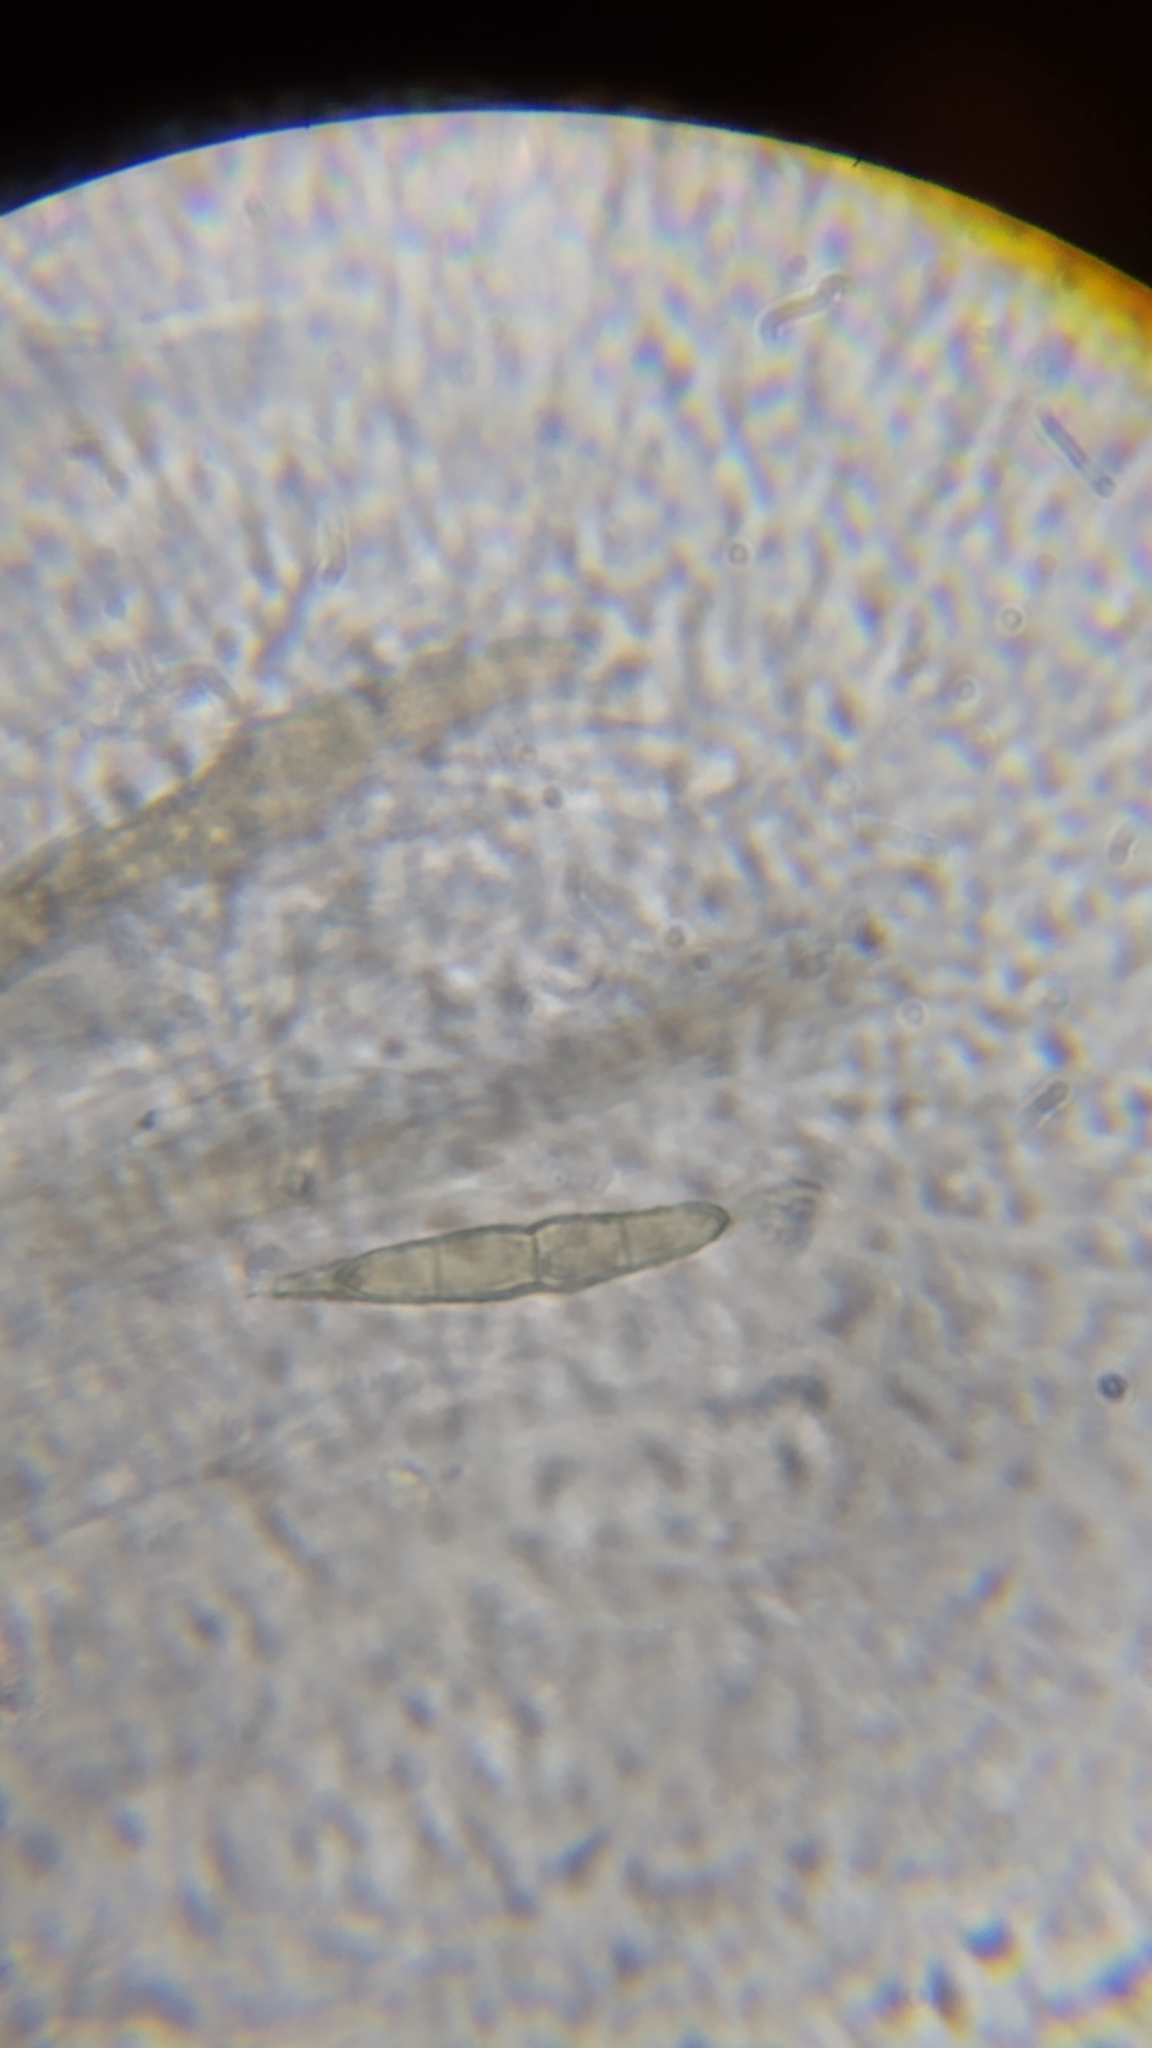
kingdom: Fungi
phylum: Ascomycota
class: Dothideomycetes
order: Pleosporales
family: Melanommataceae
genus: Byssosphaeria
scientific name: Byssosphaeria schiedermayriana
